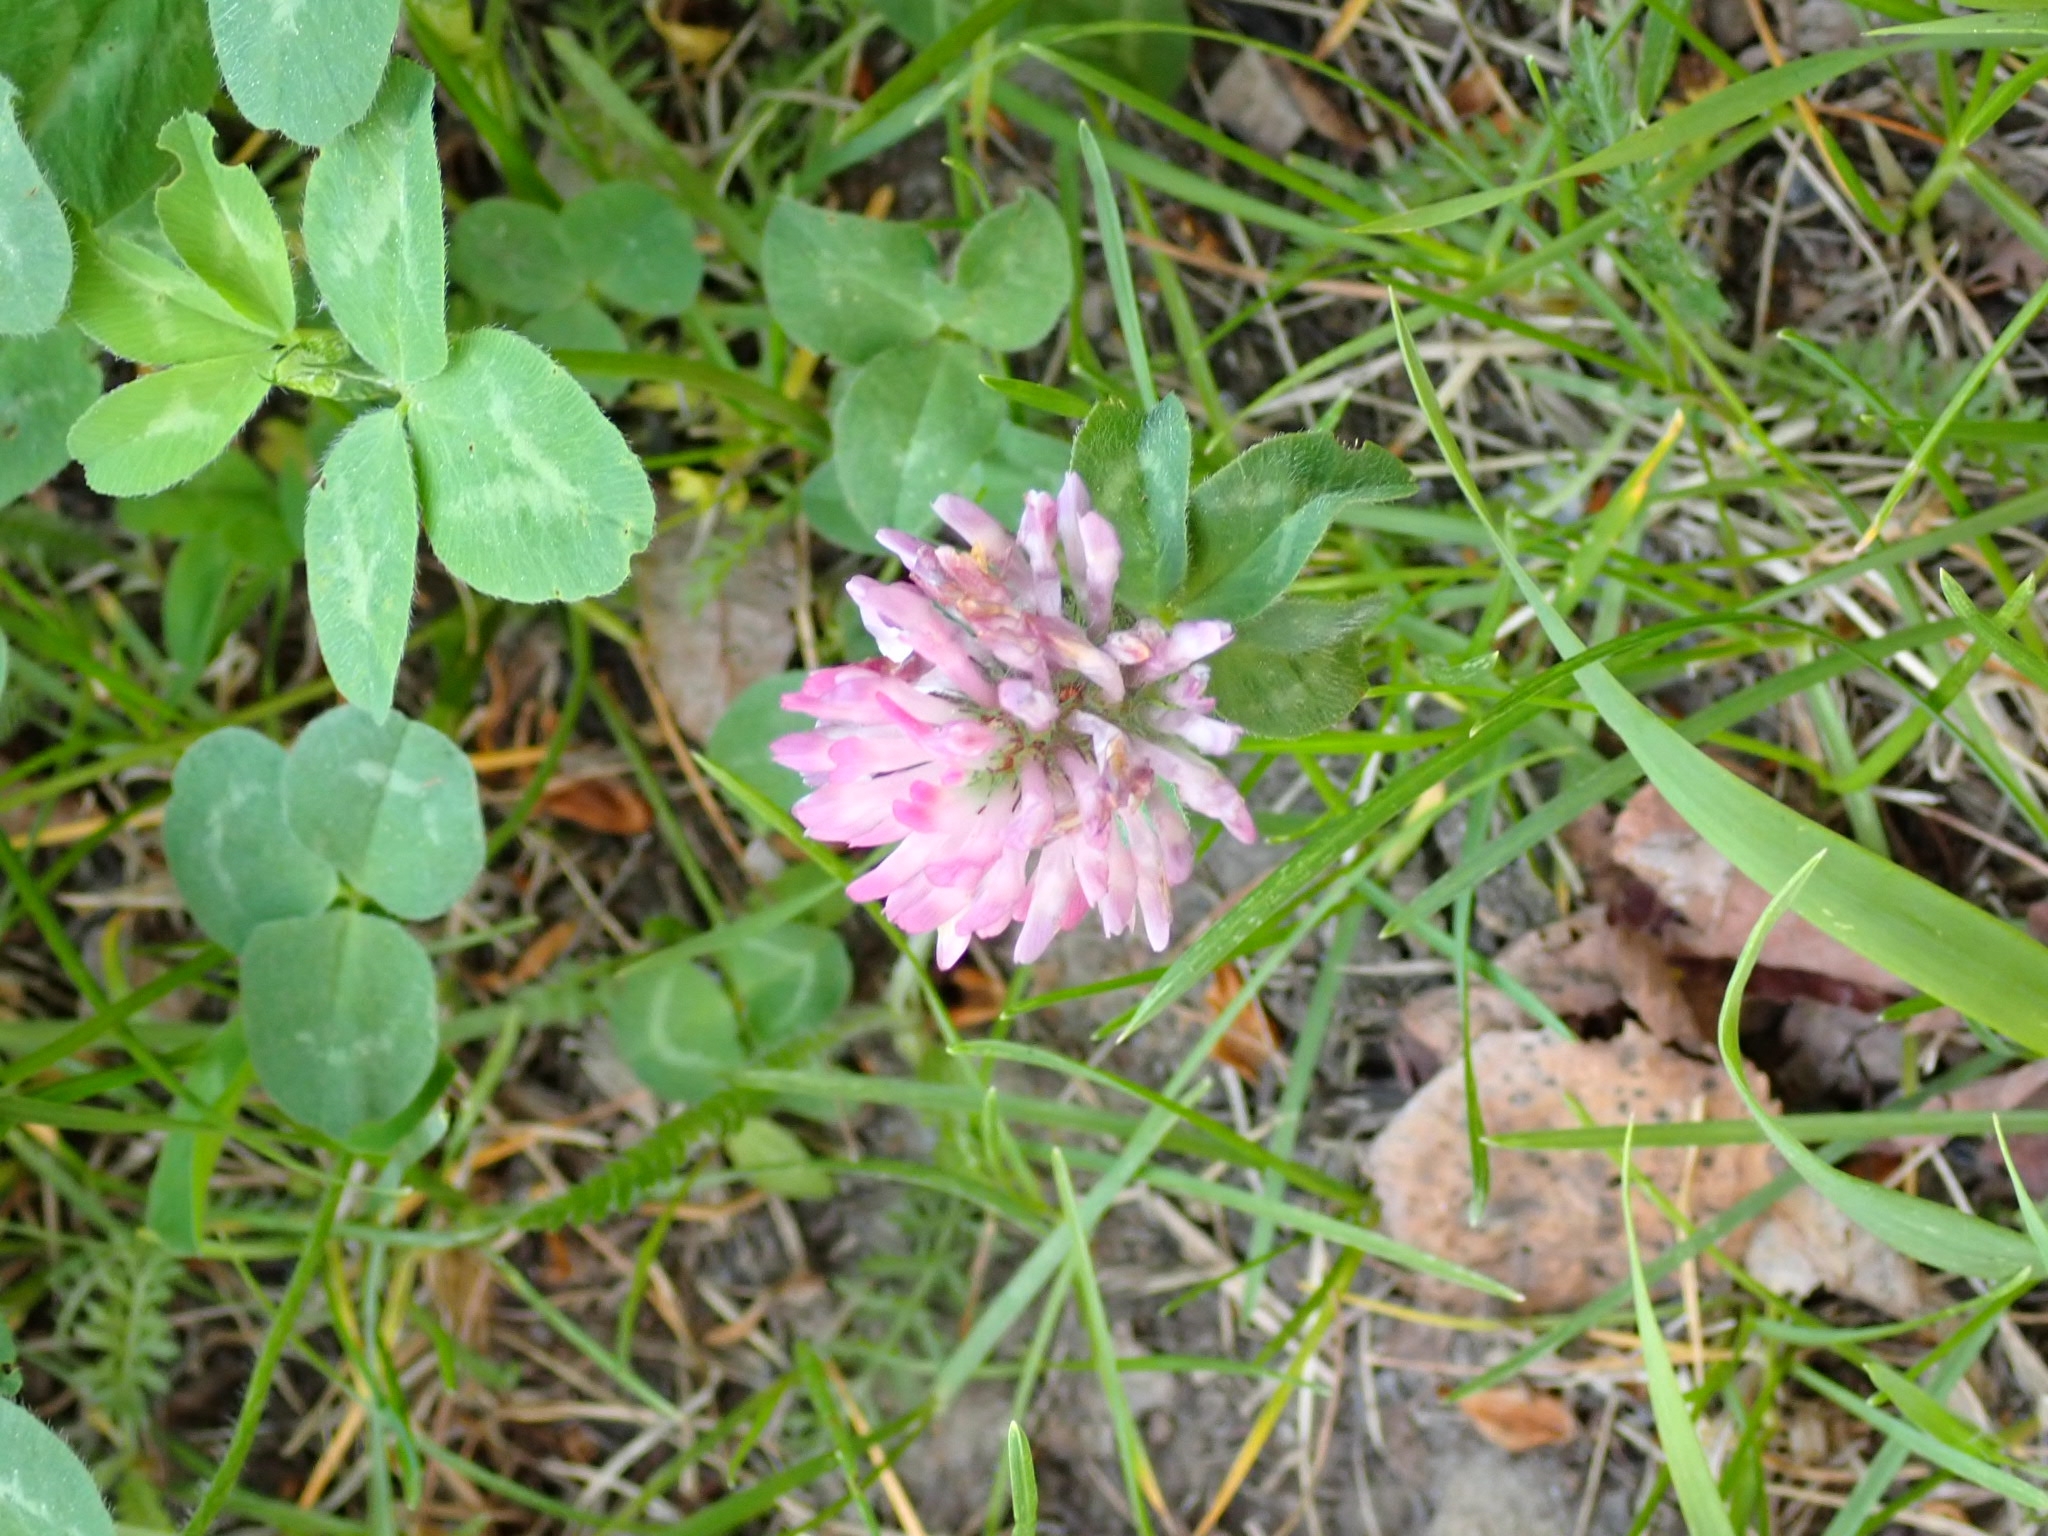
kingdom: Plantae
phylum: Tracheophyta
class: Magnoliopsida
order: Fabales
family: Fabaceae
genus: Trifolium
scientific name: Trifolium pratense
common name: Red clover
